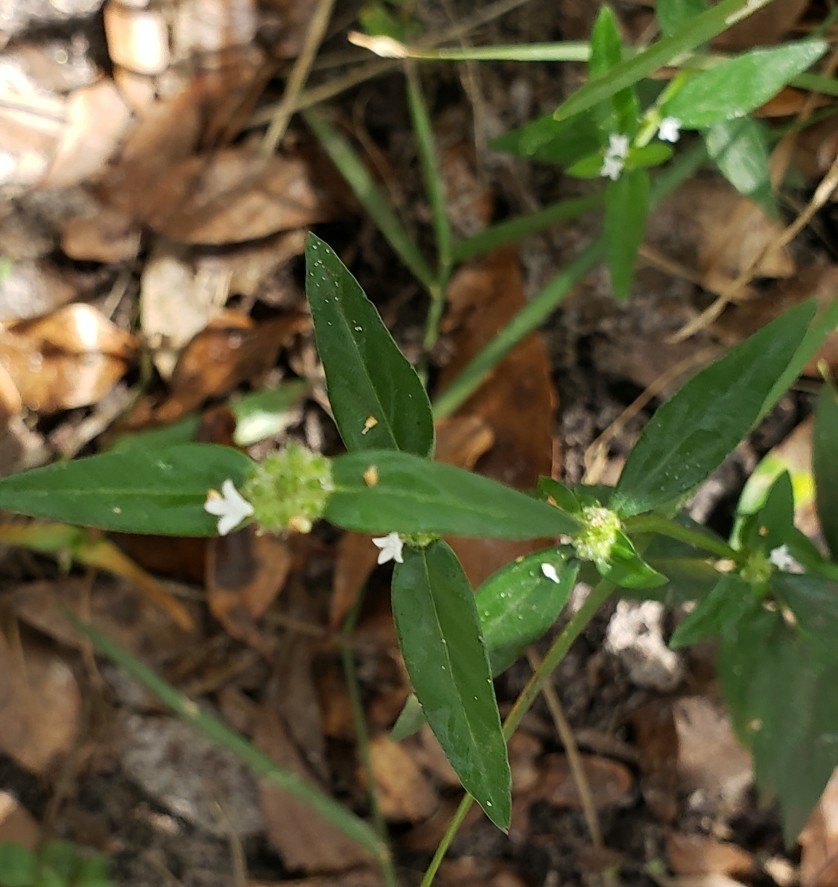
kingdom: Plantae
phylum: Tracheophyta
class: Magnoliopsida
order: Gentianales
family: Rubiaceae
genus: Spermacoce
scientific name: Spermacoce remota
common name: Woodland false buttonweed
